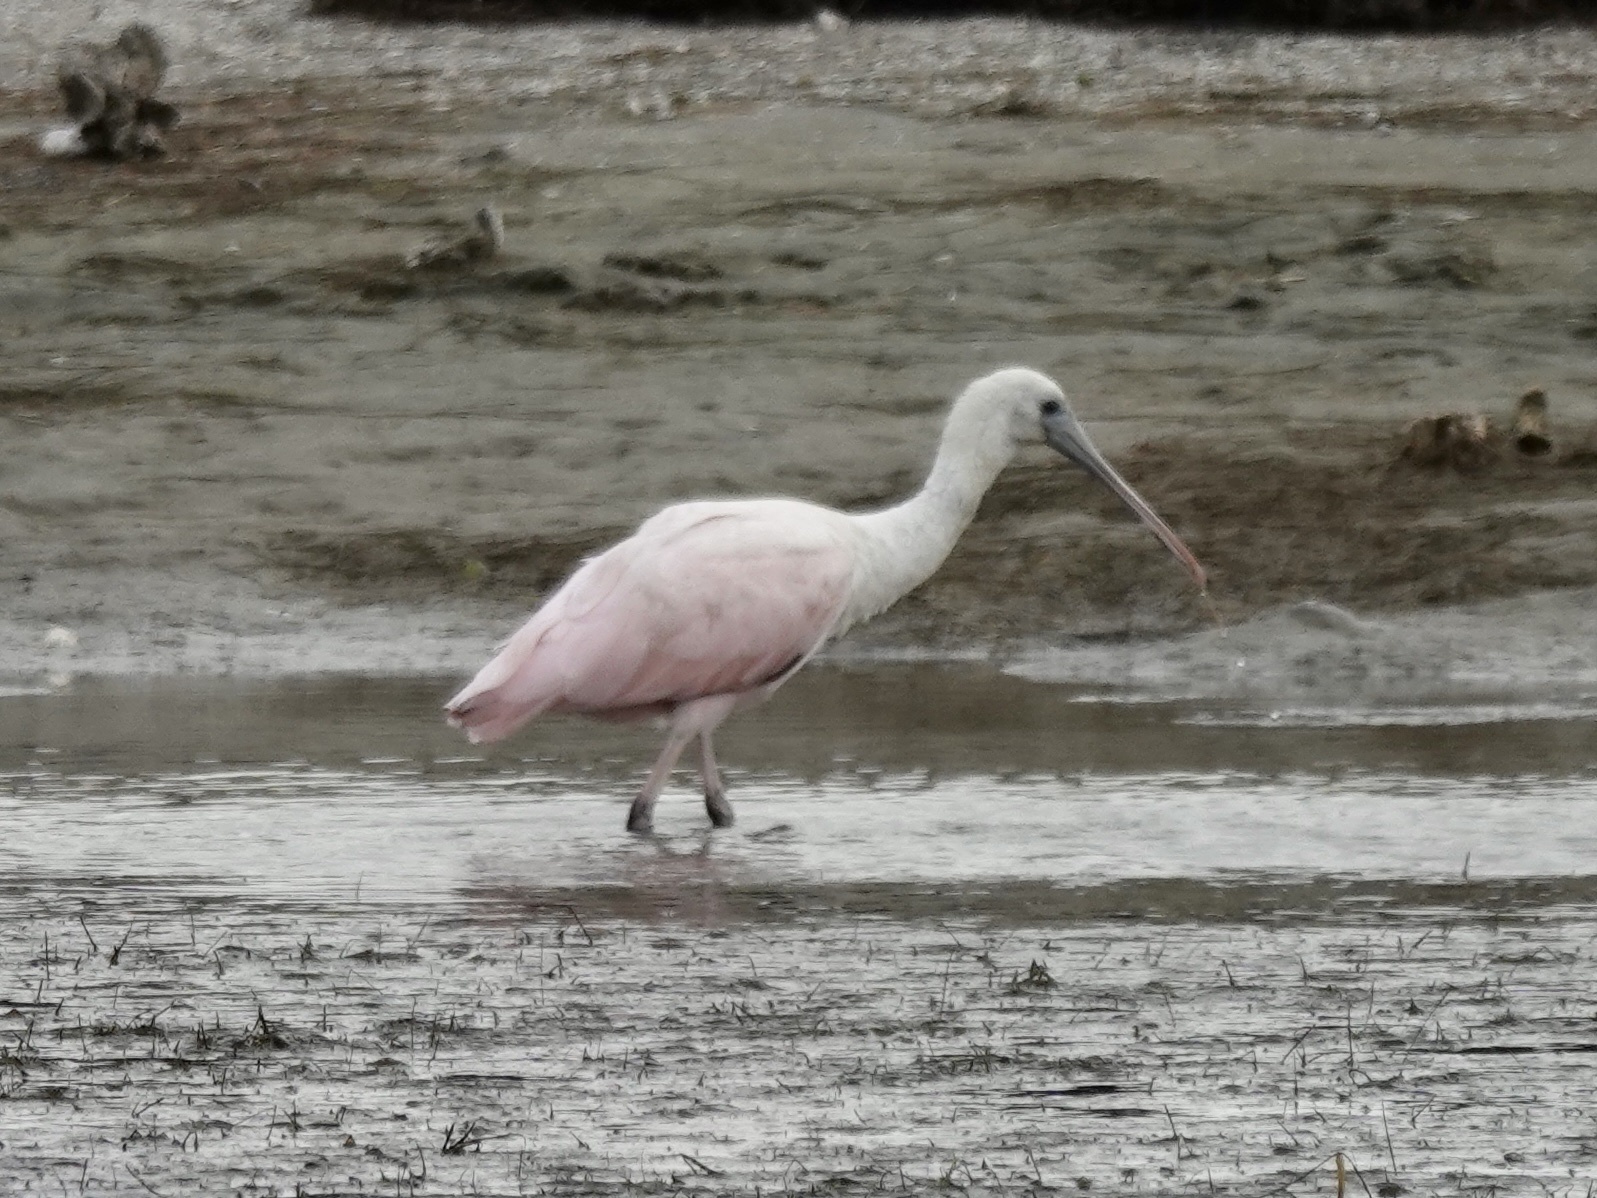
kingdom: Animalia
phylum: Chordata
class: Aves
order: Pelecaniformes
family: Threskiornithidae
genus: Platalea
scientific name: Platalea ajaja
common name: Roseate spoonbill
